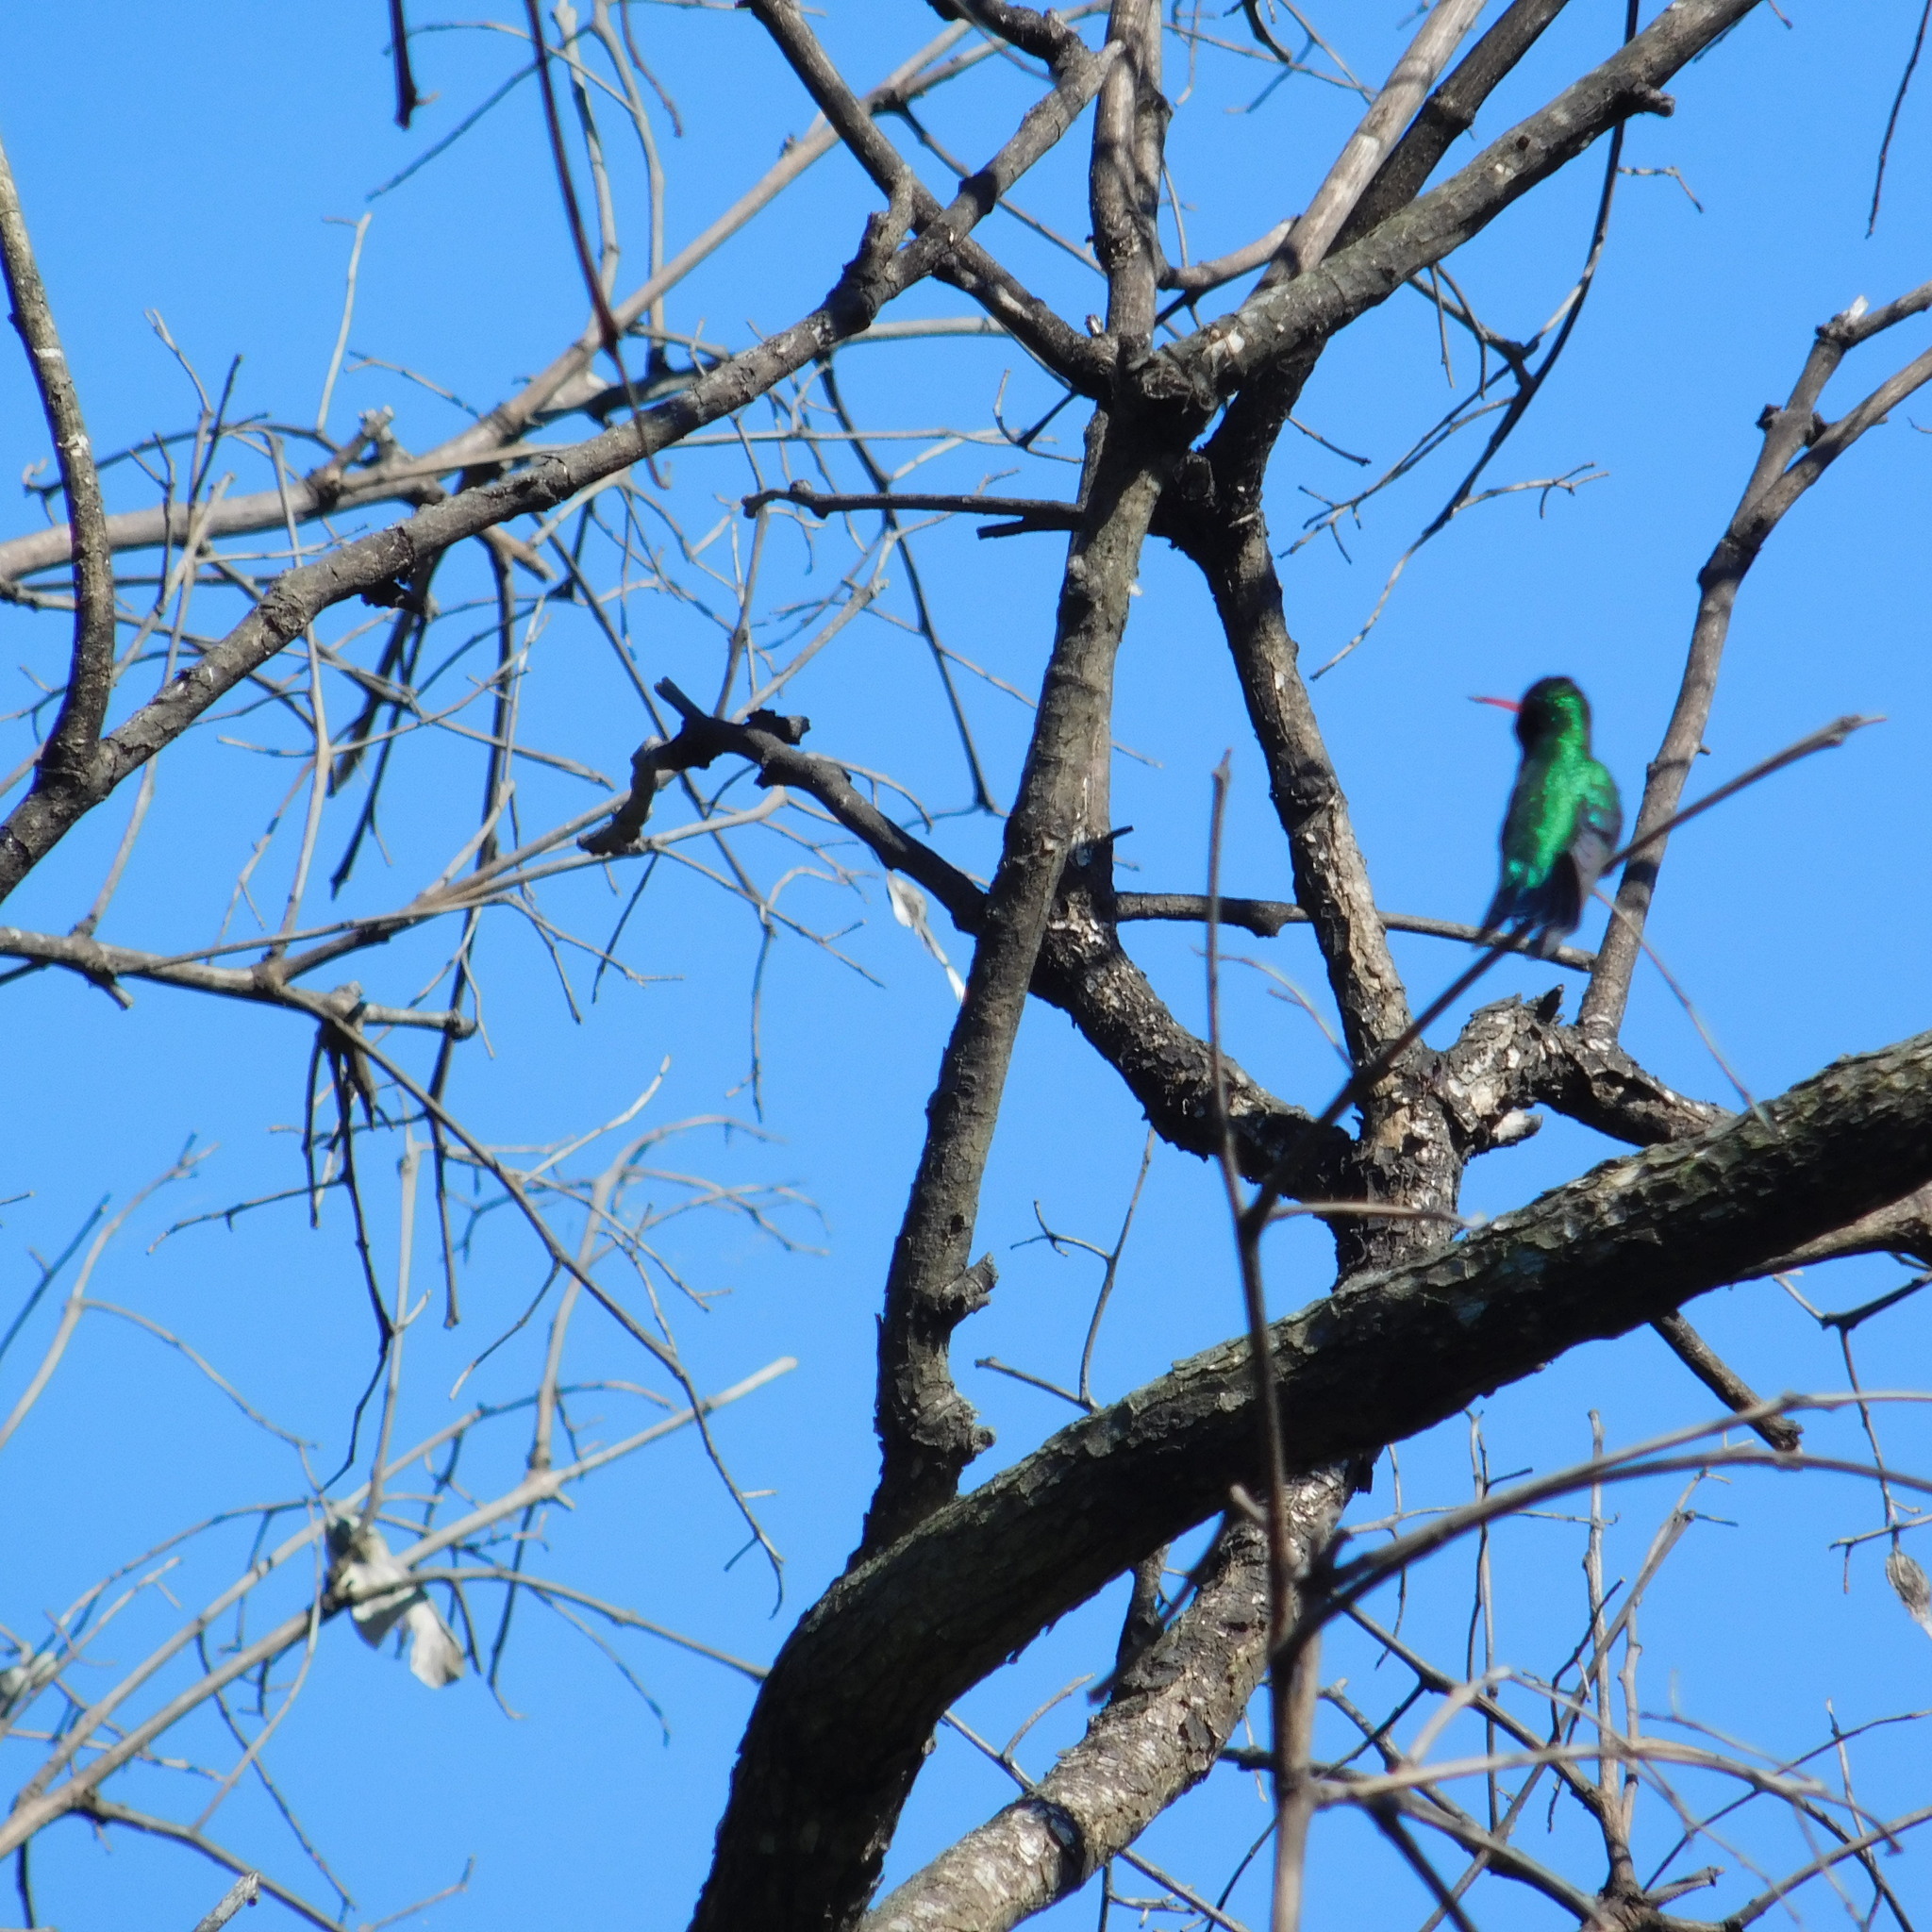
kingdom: Animalia
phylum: Chordata
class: Aves
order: Apodiformes
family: Trochilidae
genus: Chlorostilbon
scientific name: Chlorostilbon lucidus
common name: Glittering-bellied emerald
